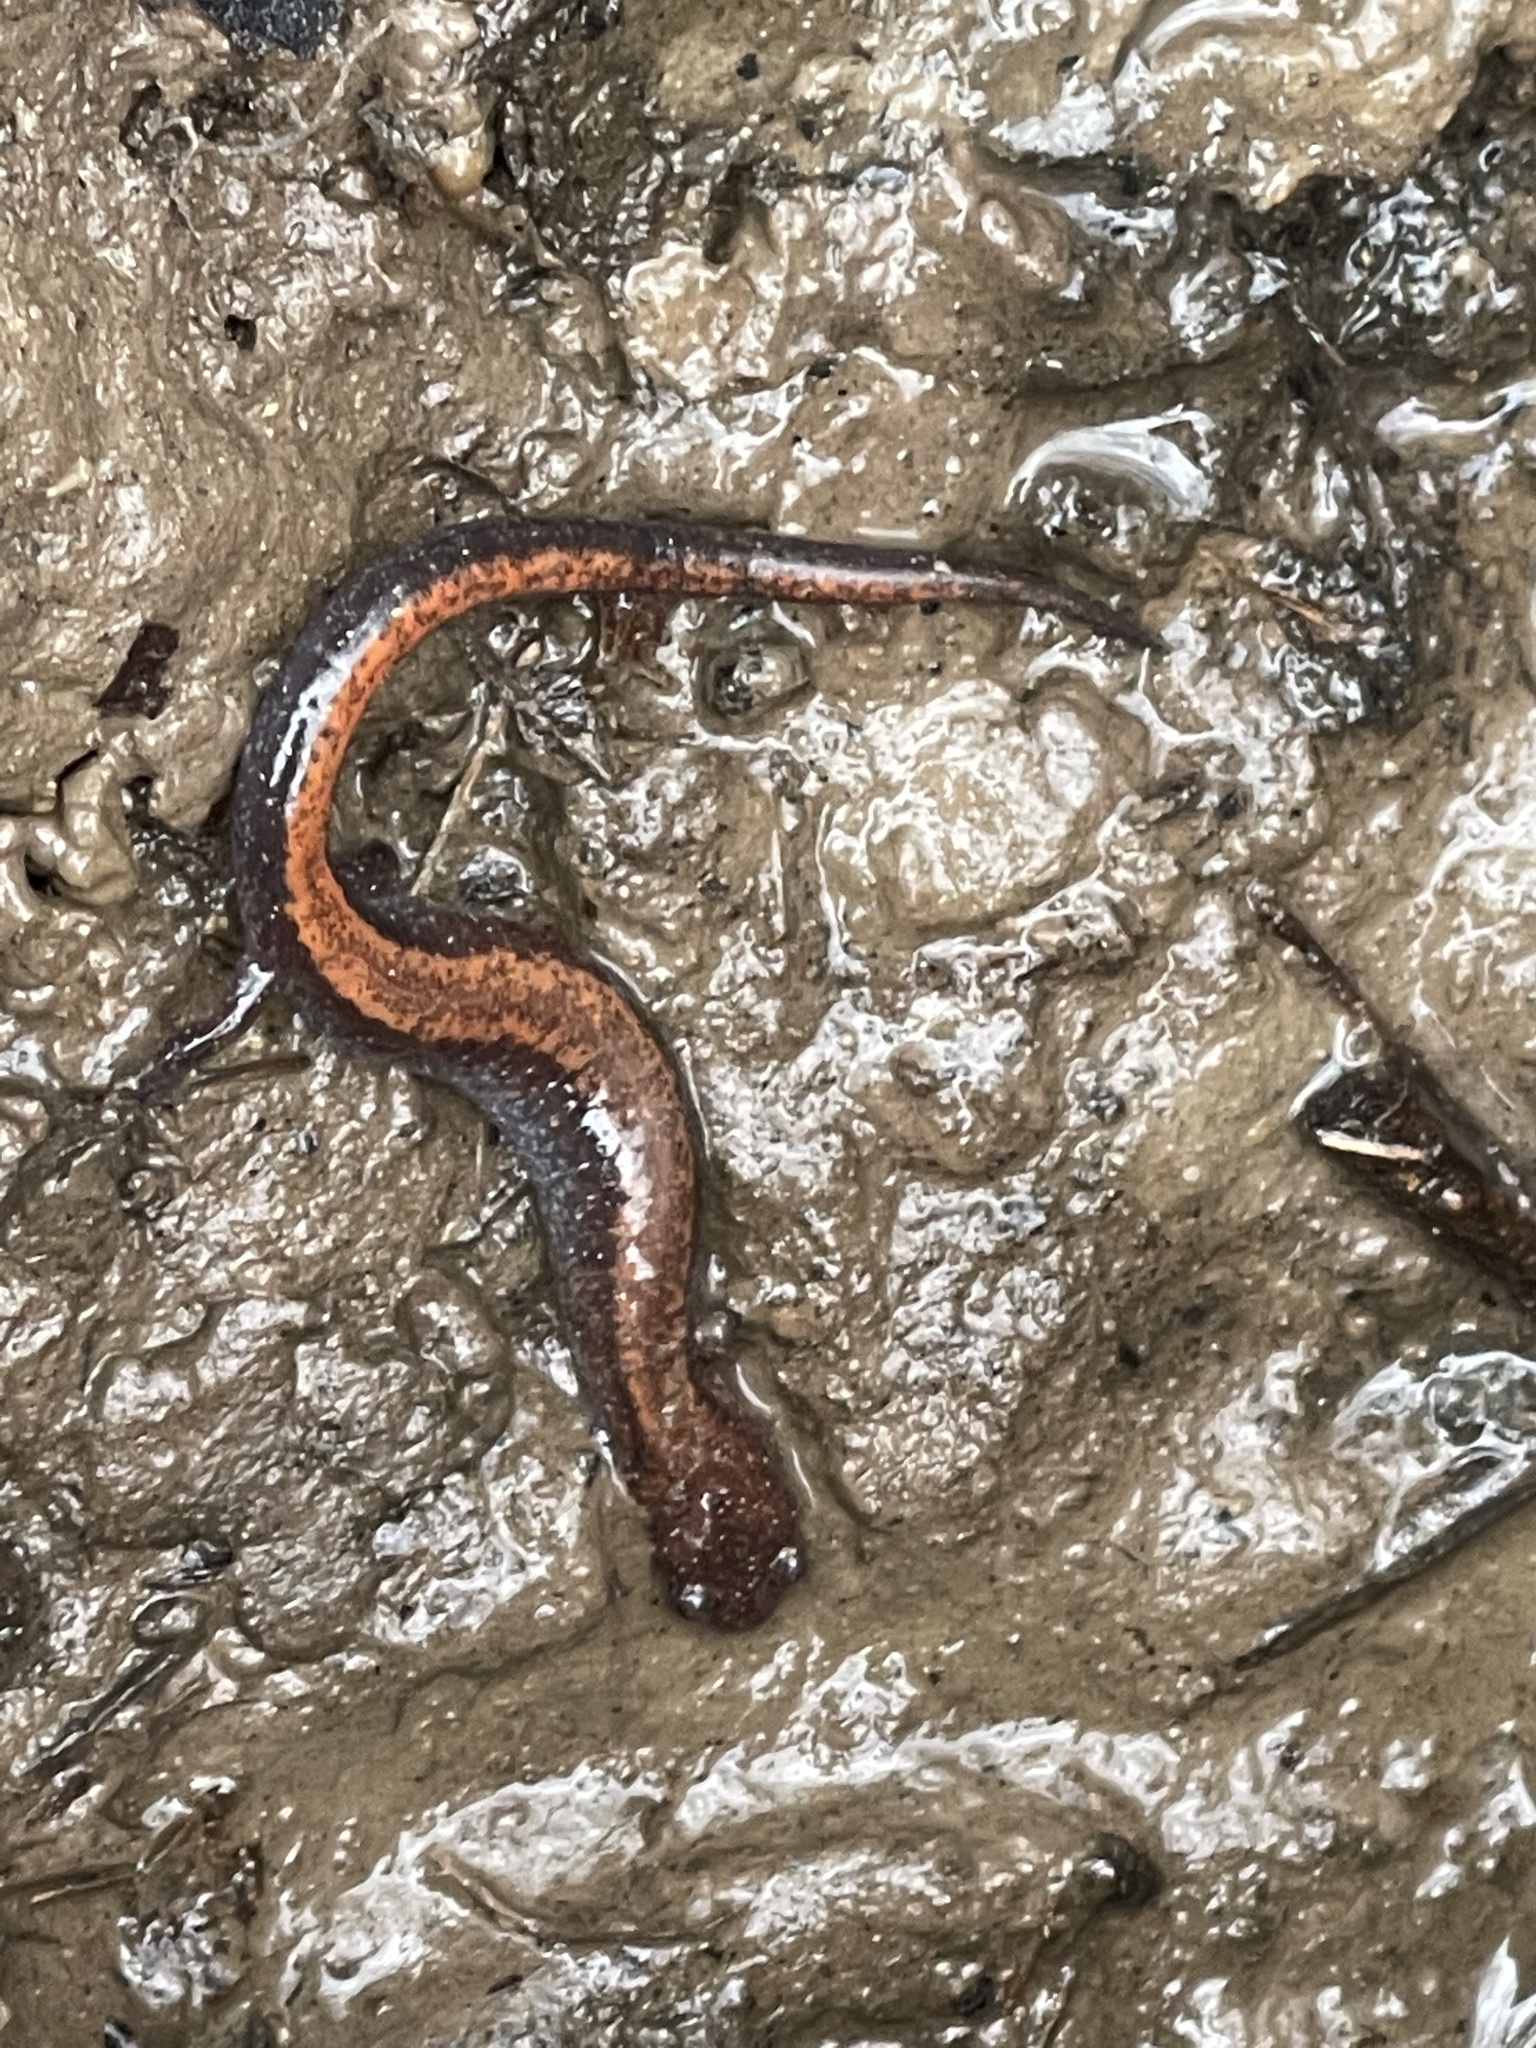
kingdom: Animalia
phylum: Chordata
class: Amphibia
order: Caudata
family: Plethodontidae
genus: Plethodon
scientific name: Plethodon cinereus
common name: Redback salamander
